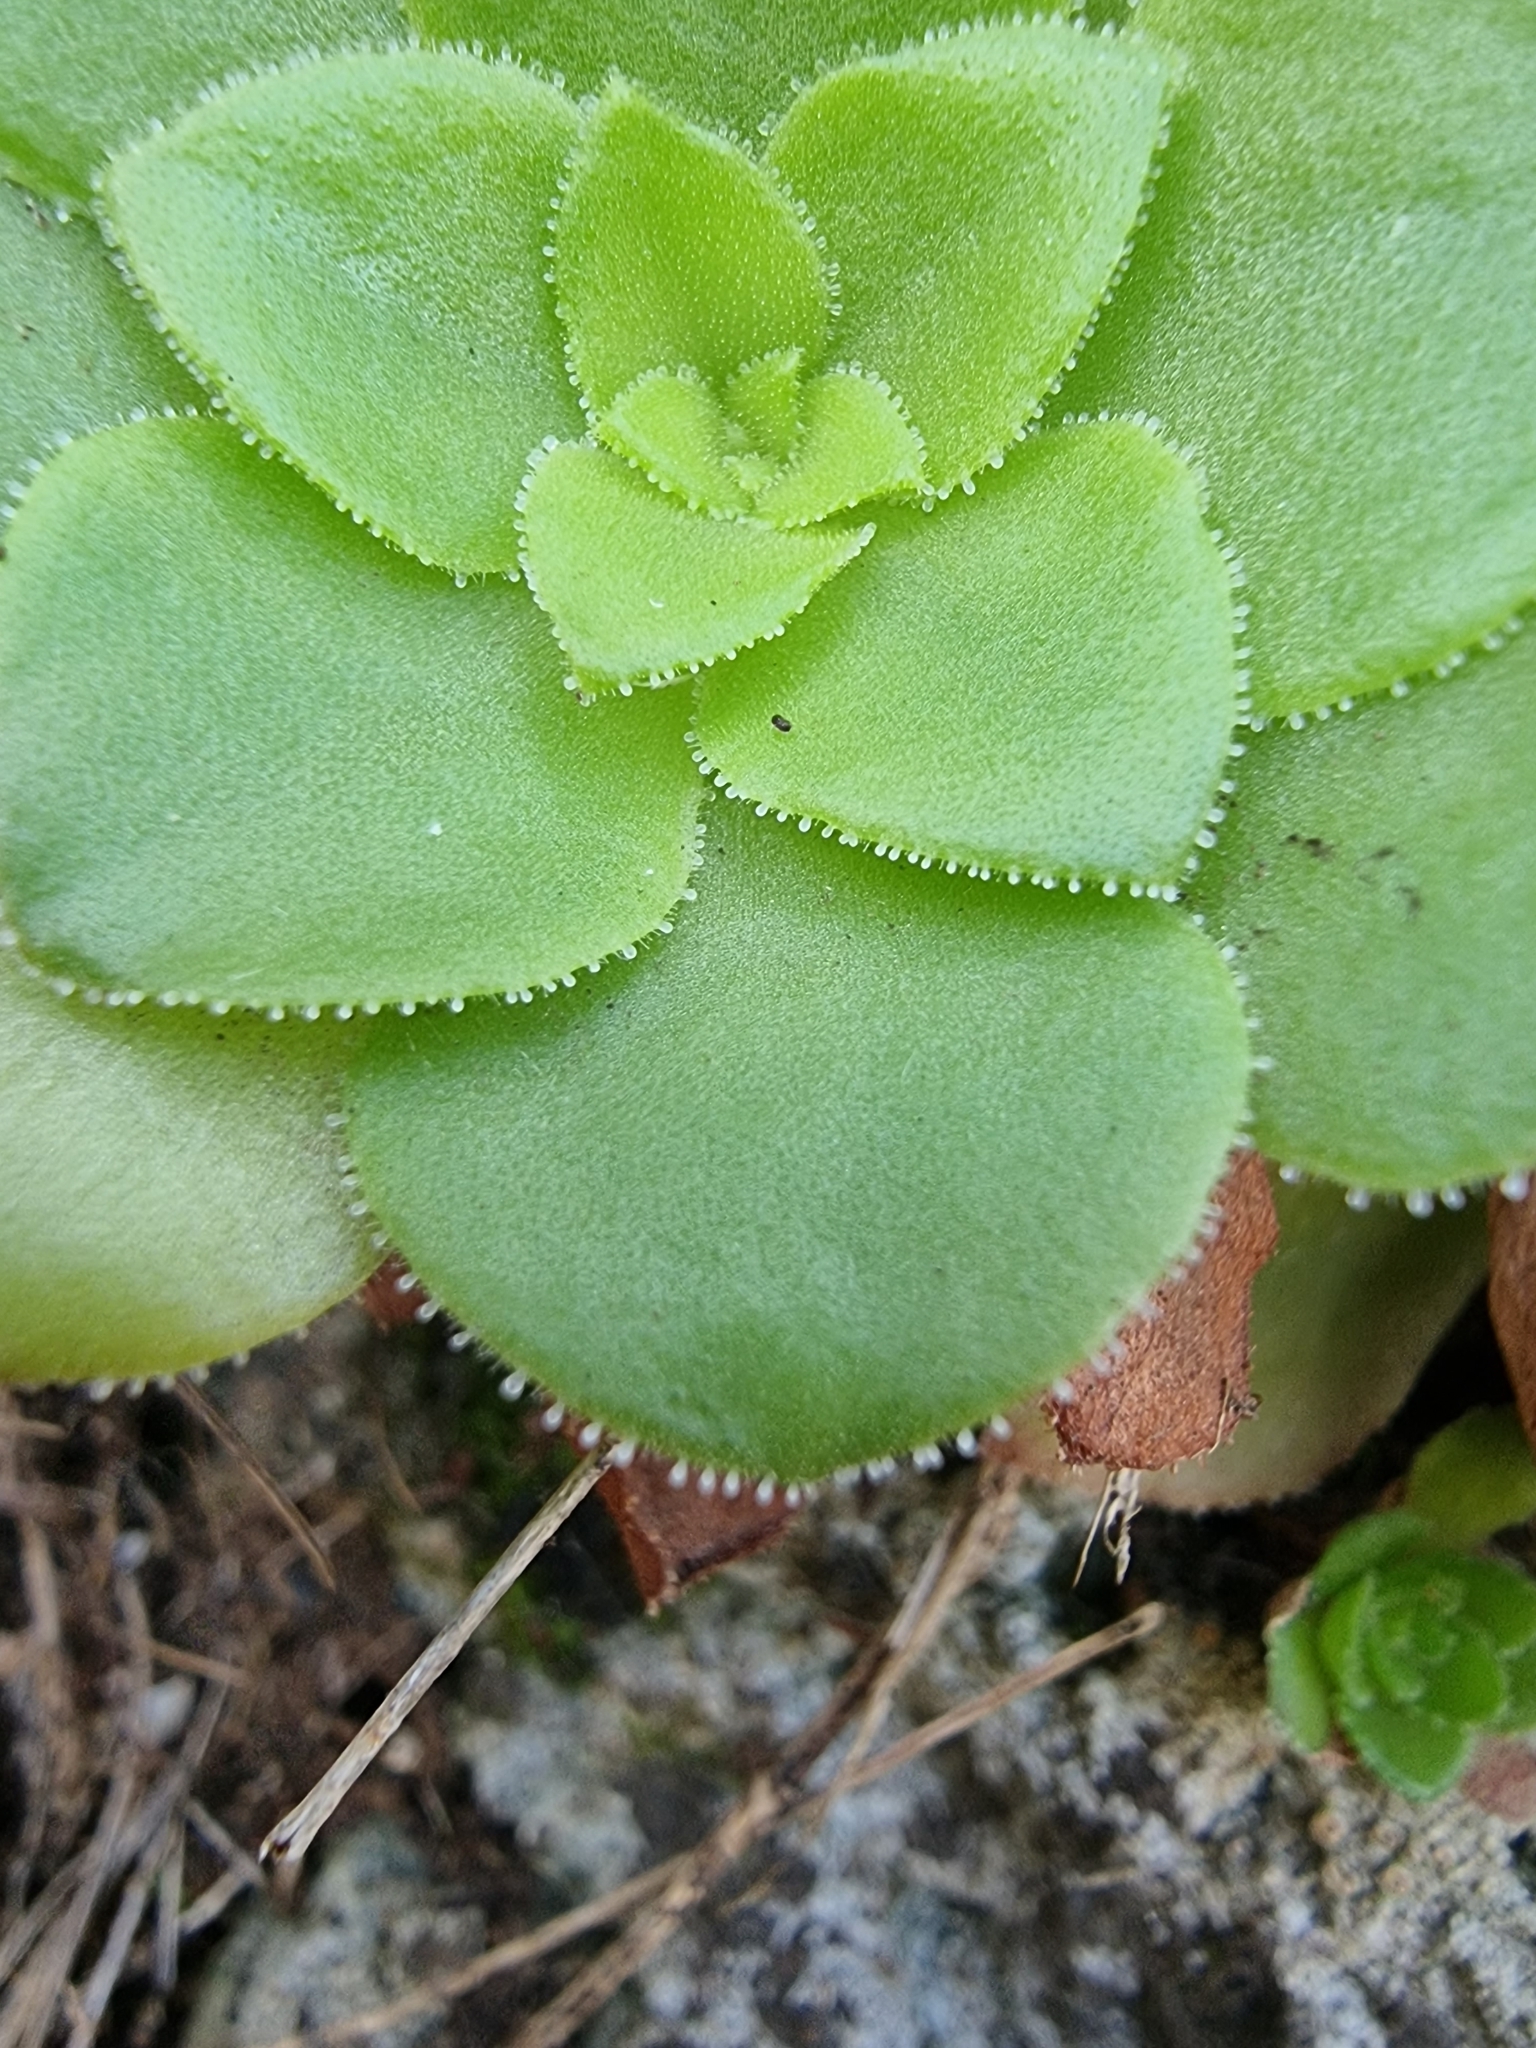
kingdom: Plantae
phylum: Tracheophyta
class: Magnoliopsida
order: Saxifragales
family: Crassulaceae
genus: Aeonium
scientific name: Aeonium glandulosum
